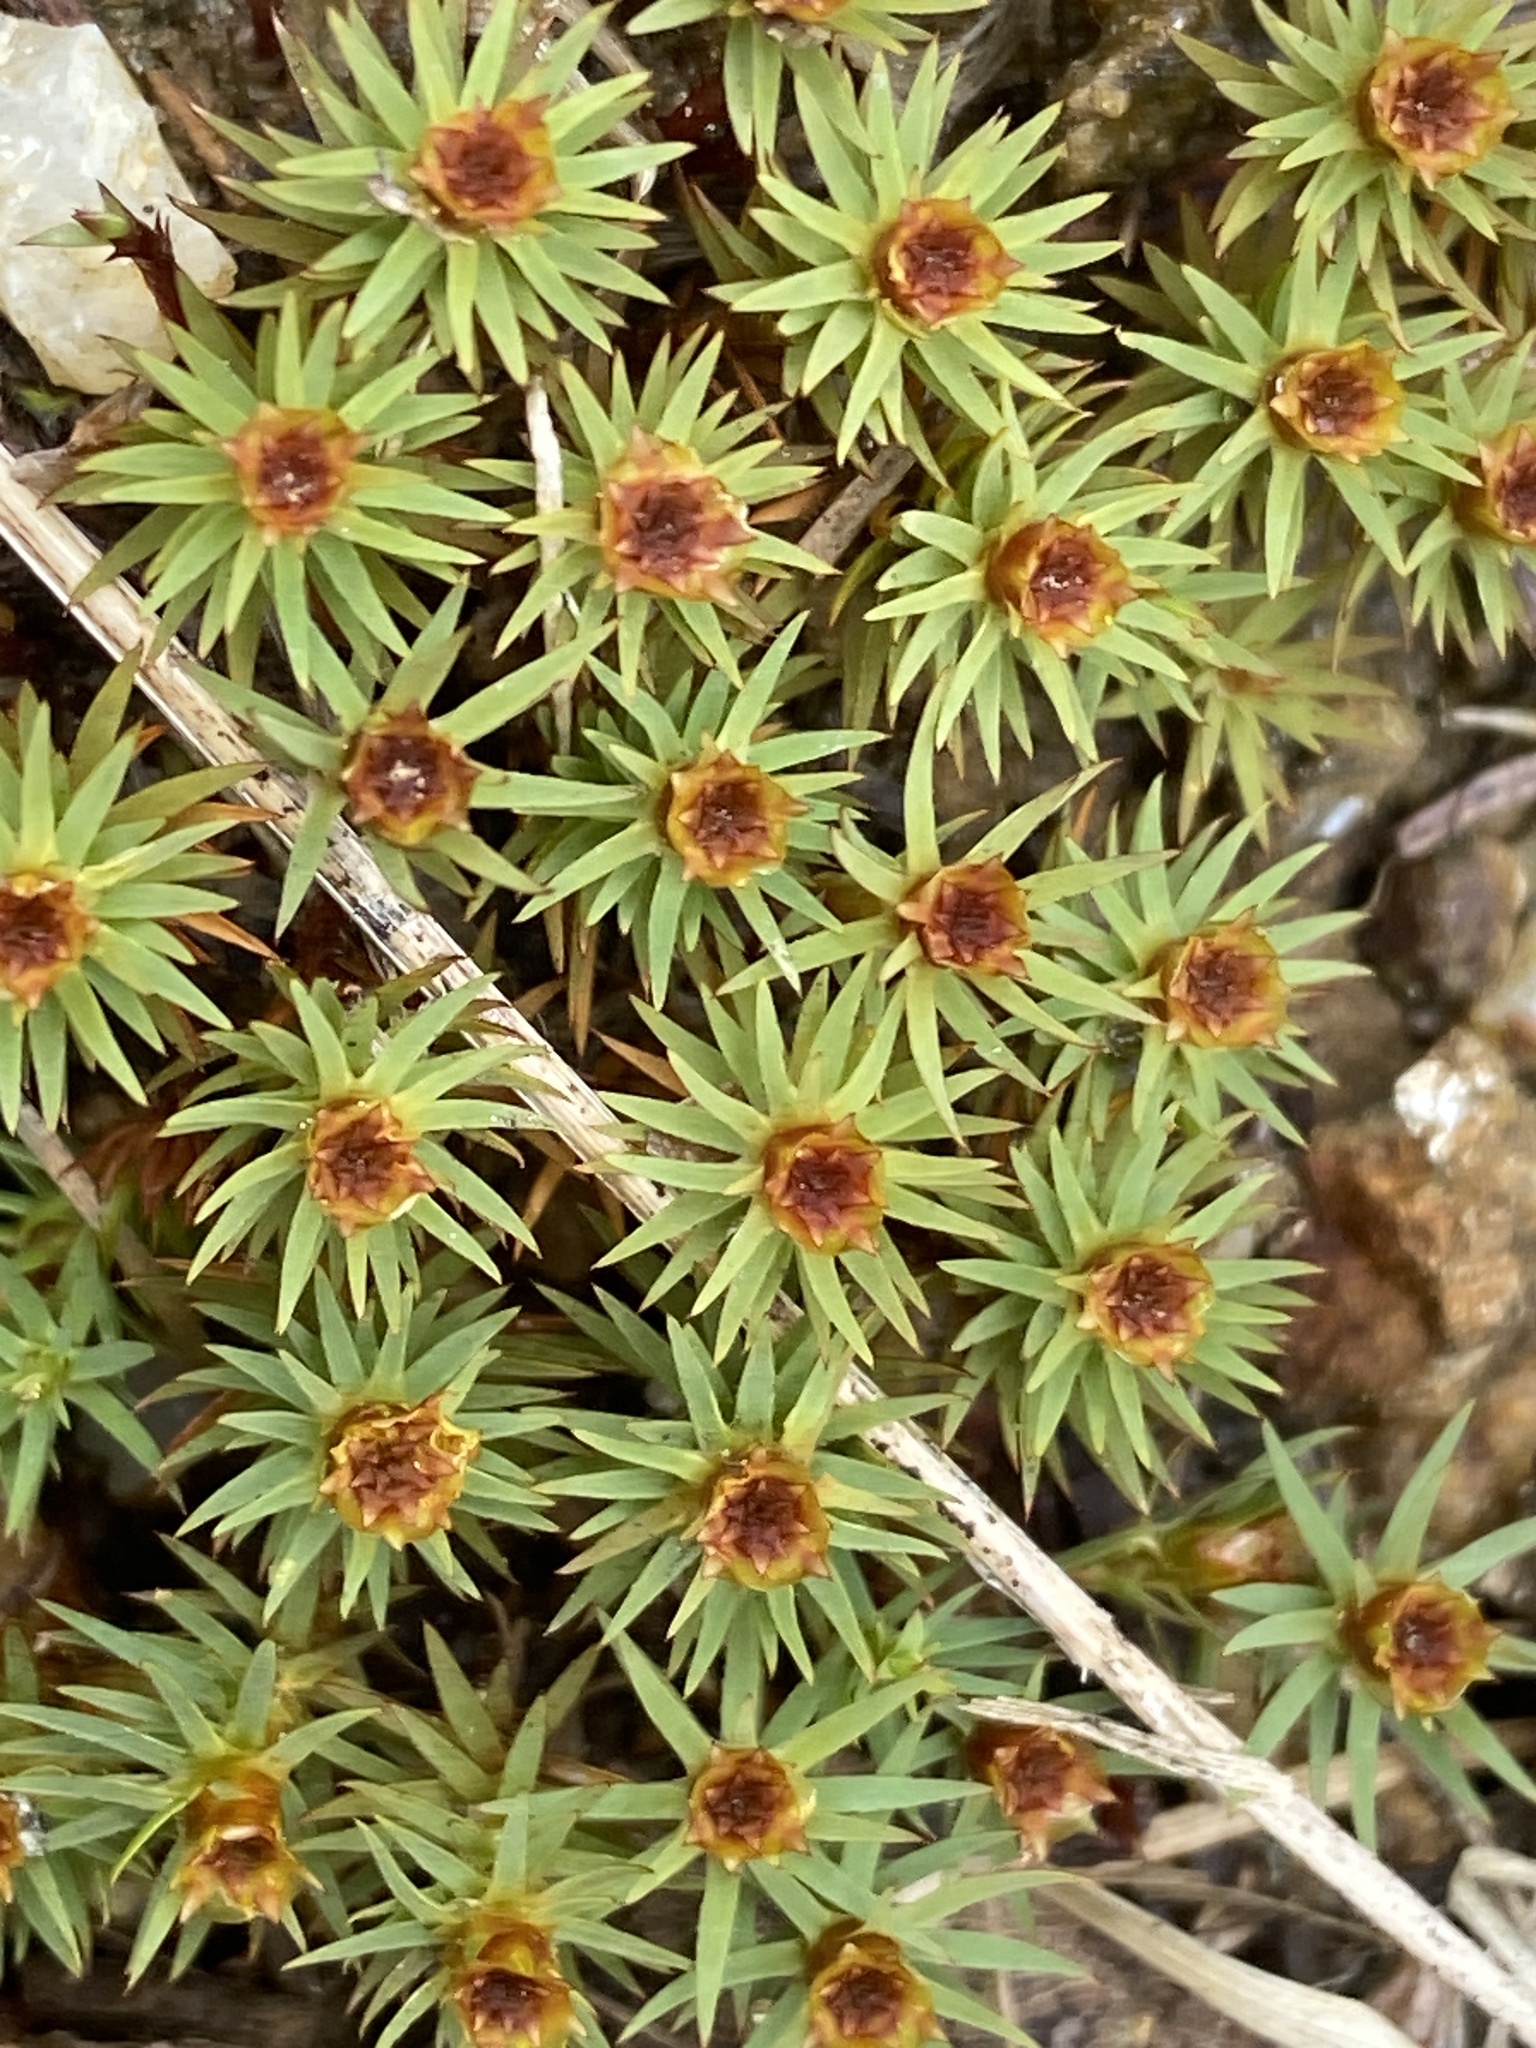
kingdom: Plantae
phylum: Bryophyta
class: Polytrichopsida
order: Polytrichales
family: Polytrichaceae
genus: Pogonatum
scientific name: Pogonatum urnigerum
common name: Urn hair moss
